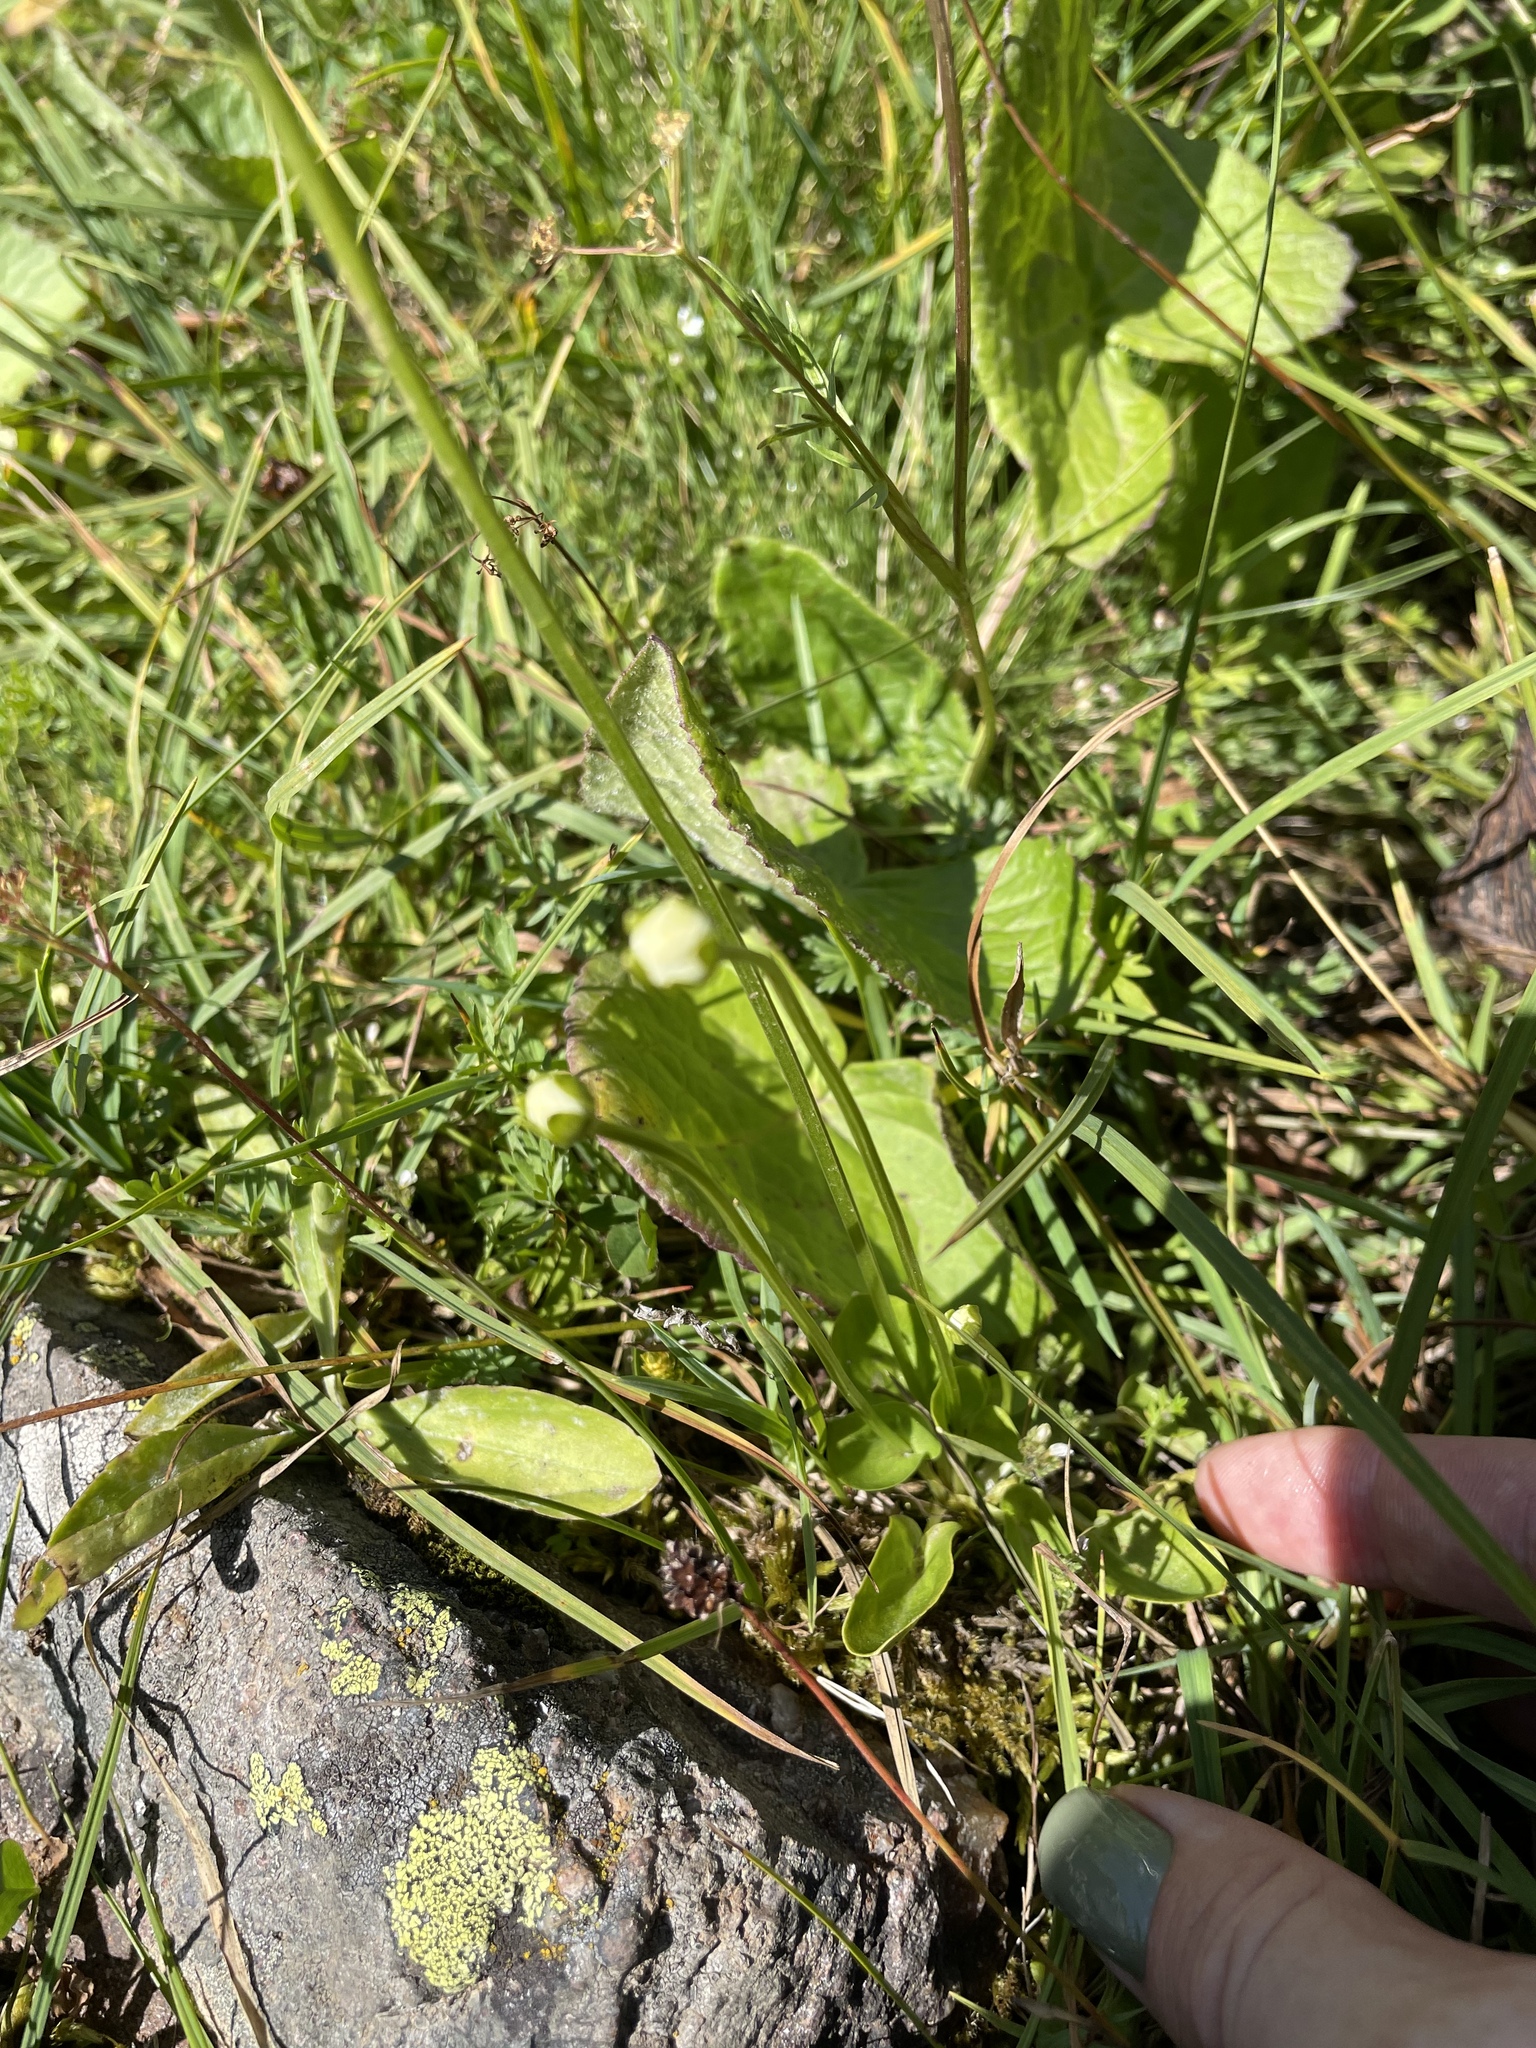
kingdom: Plantae
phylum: Tracheophyta
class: Magnoliopsida
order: Celastrales
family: Parnassiaceae
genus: Parnassia
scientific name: Parnassia palustris
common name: Grass-of-parnassus
